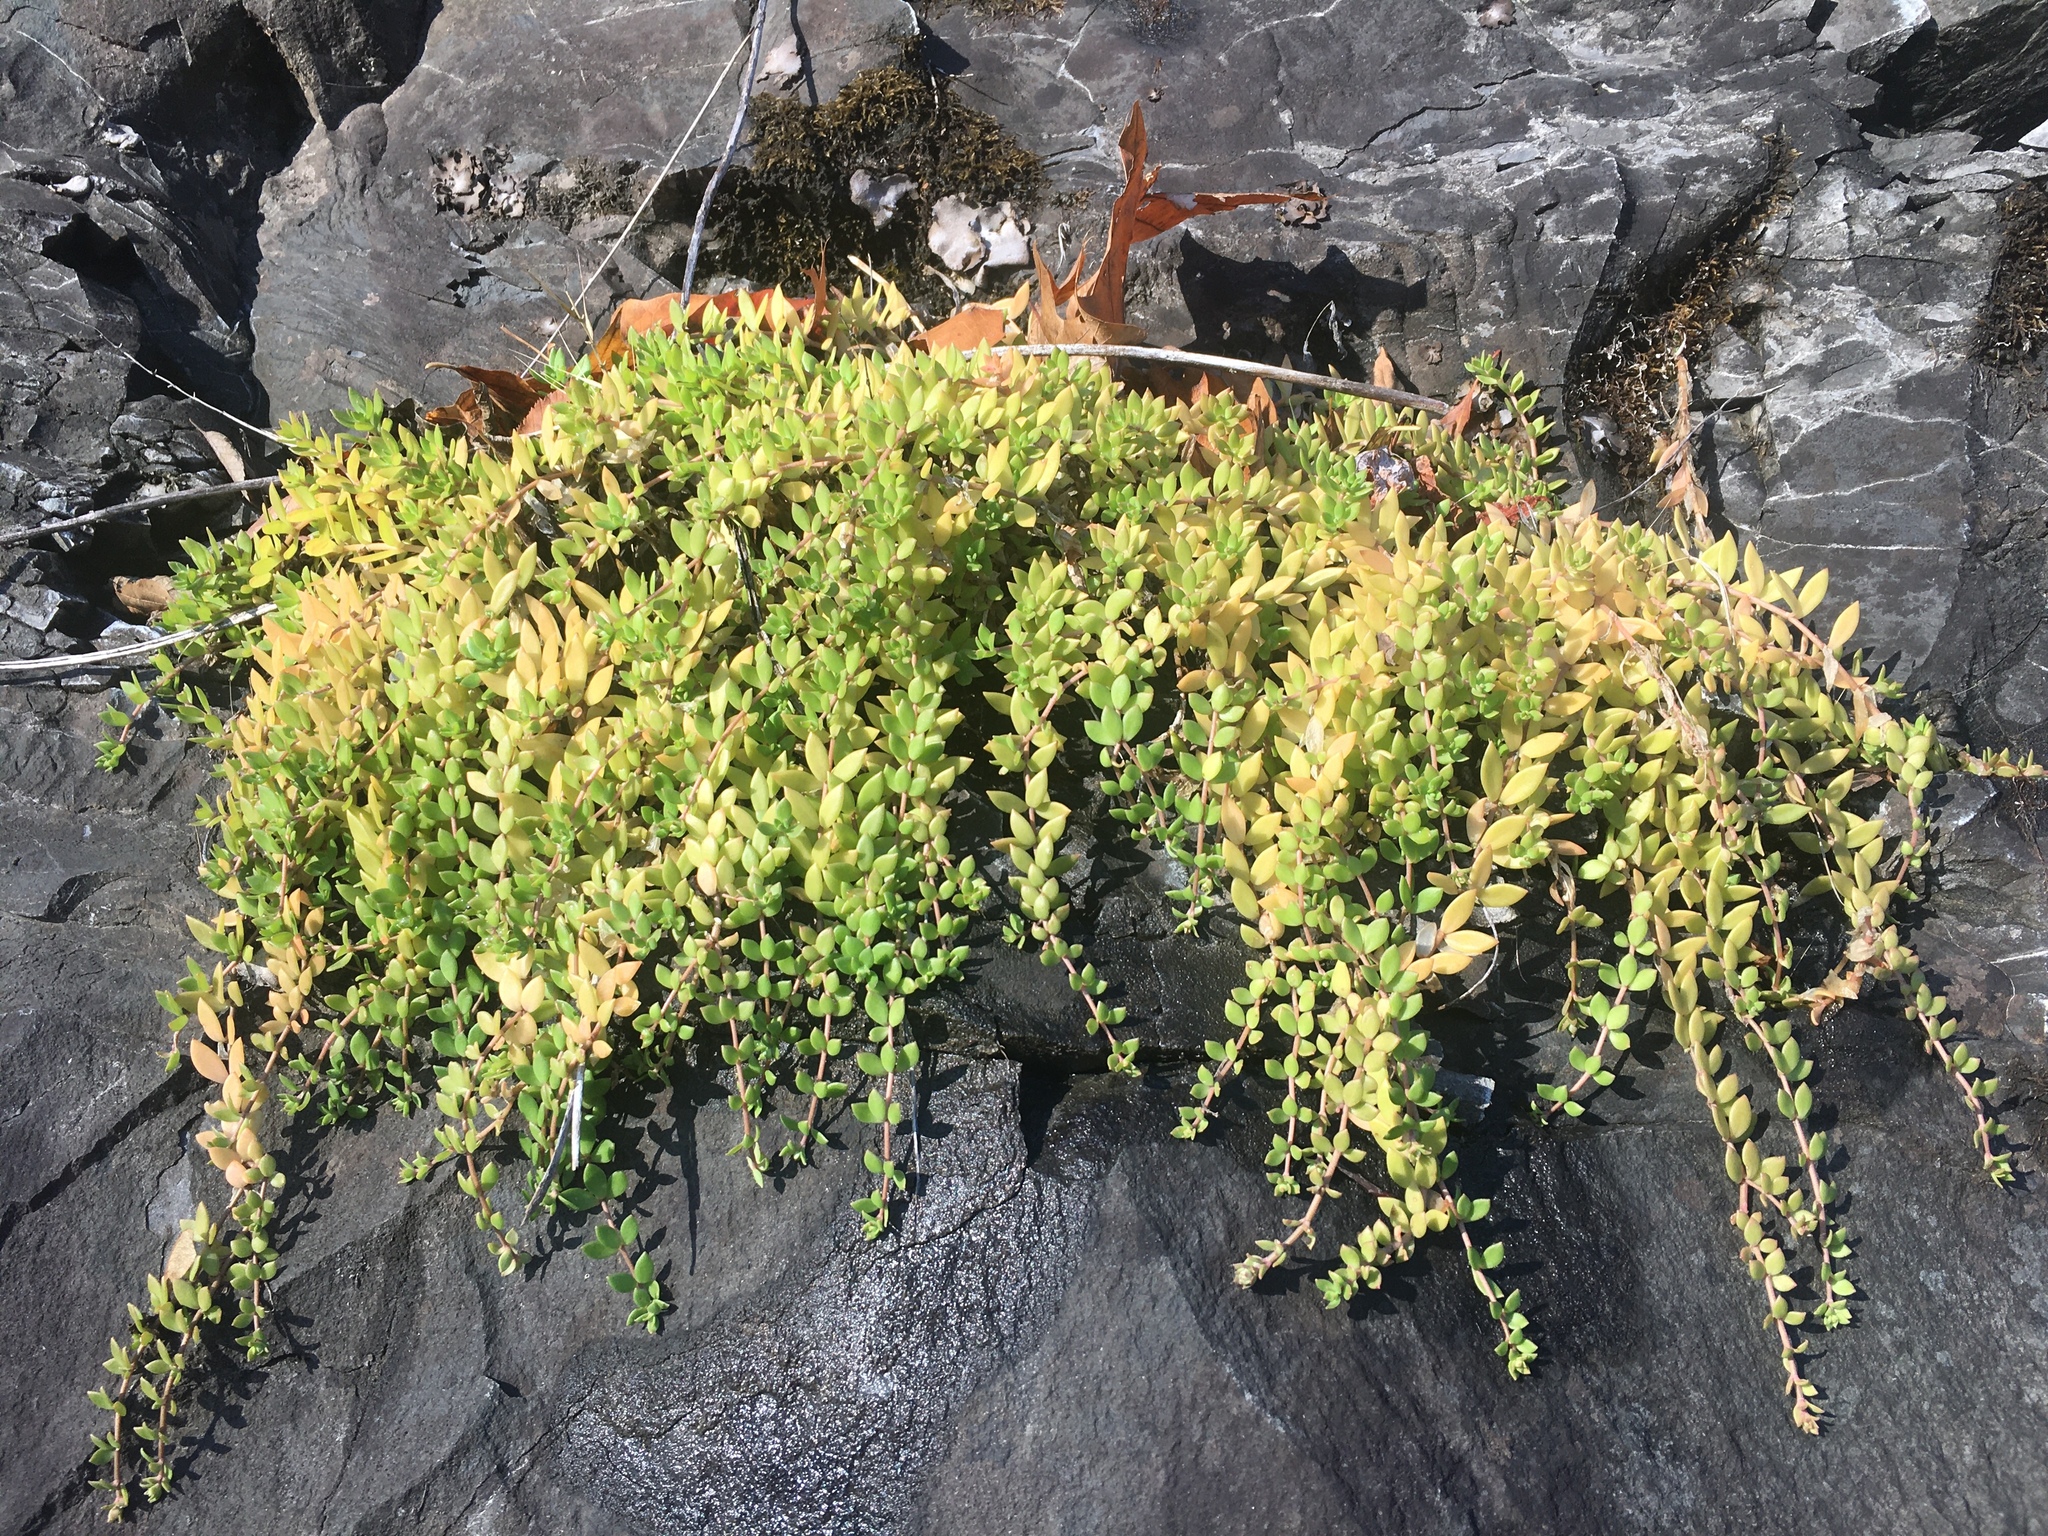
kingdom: Plantae
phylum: Tracheophyta
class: Magnoliopsida
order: Saxifragales
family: Crassulaceae
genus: Sedum
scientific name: Sedum sarmentosum
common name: Stringy stonecrop
